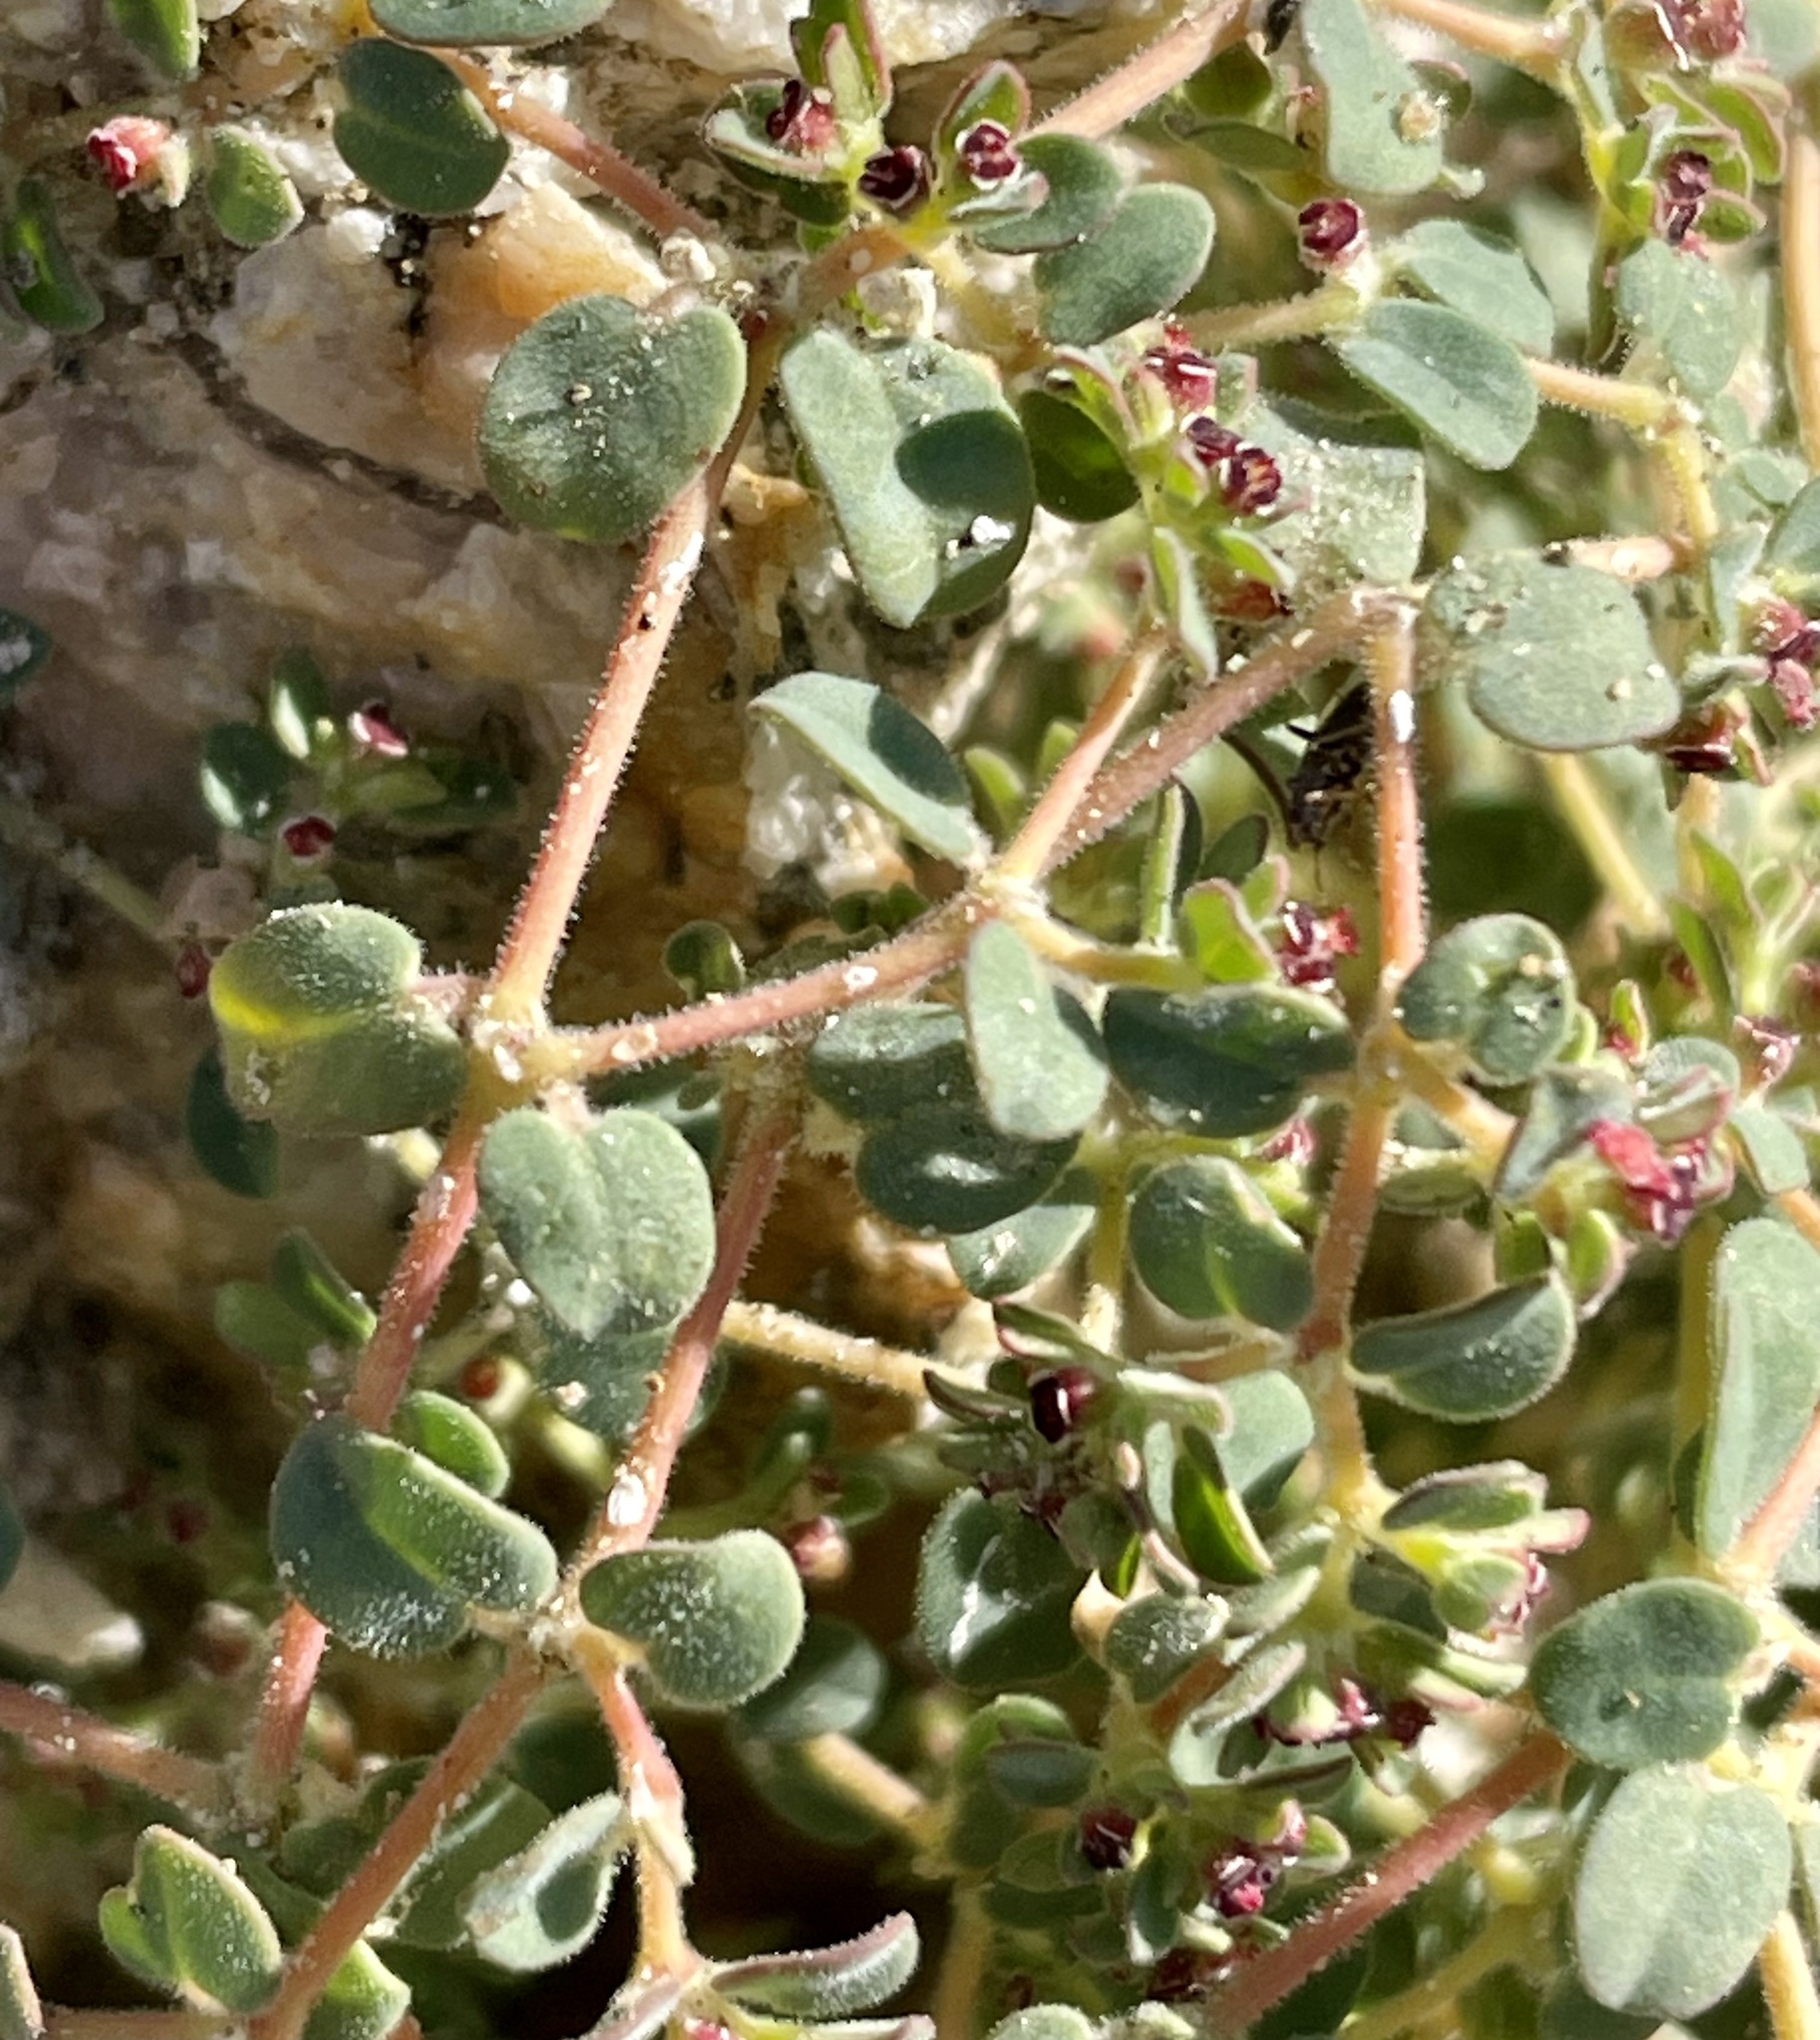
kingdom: Plantae
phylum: Tracheophyta
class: Magnoliopsida
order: Malpighiales
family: Euphorbiaceae
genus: Euphorbia
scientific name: Euphorbia polycarpa
